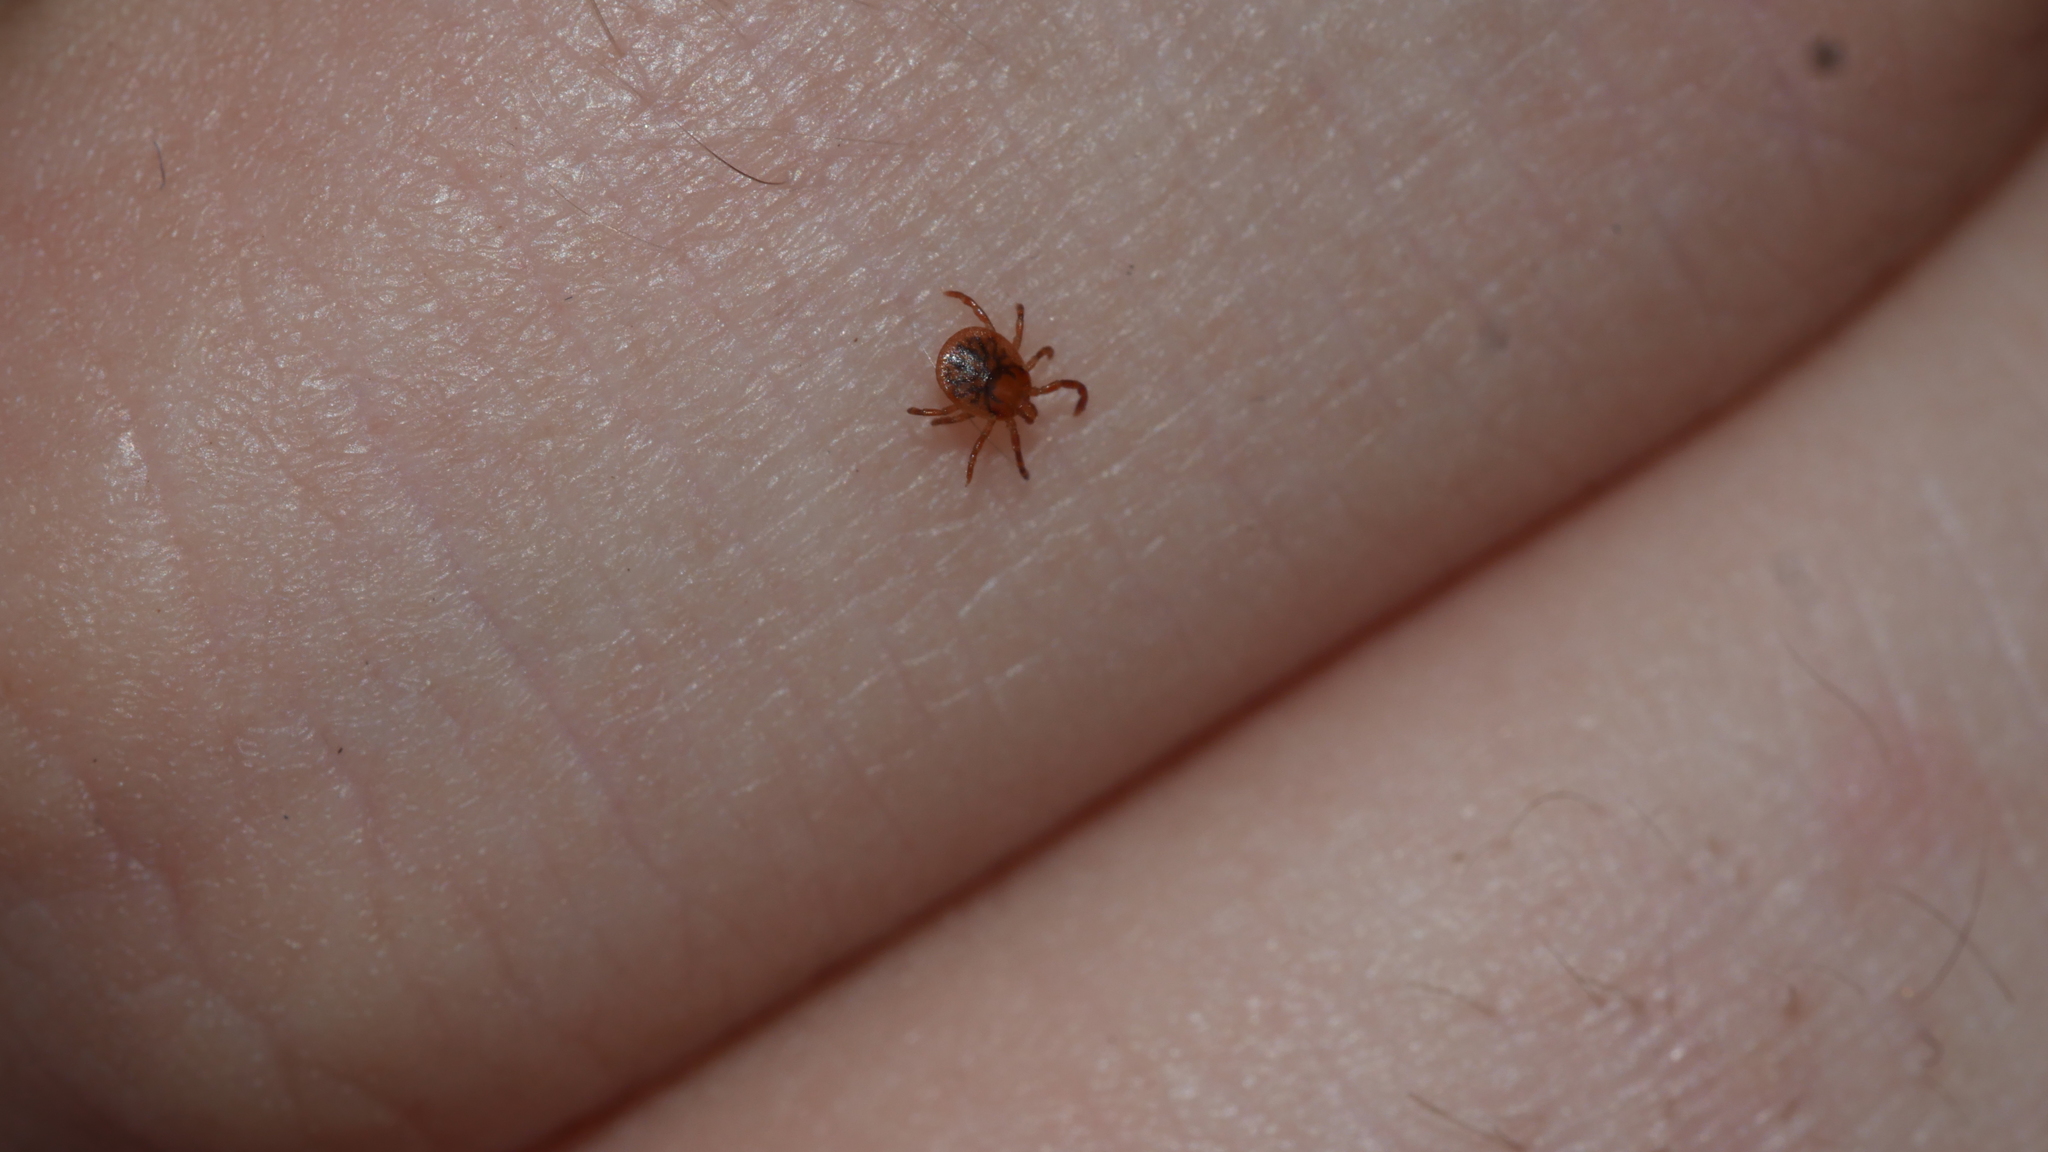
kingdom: Animalia
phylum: Arthropoda
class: Arachnida
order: Ixodida
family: Ixodidae
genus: Amblyomma
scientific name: Amblyomma americanum
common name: Lone star tick
